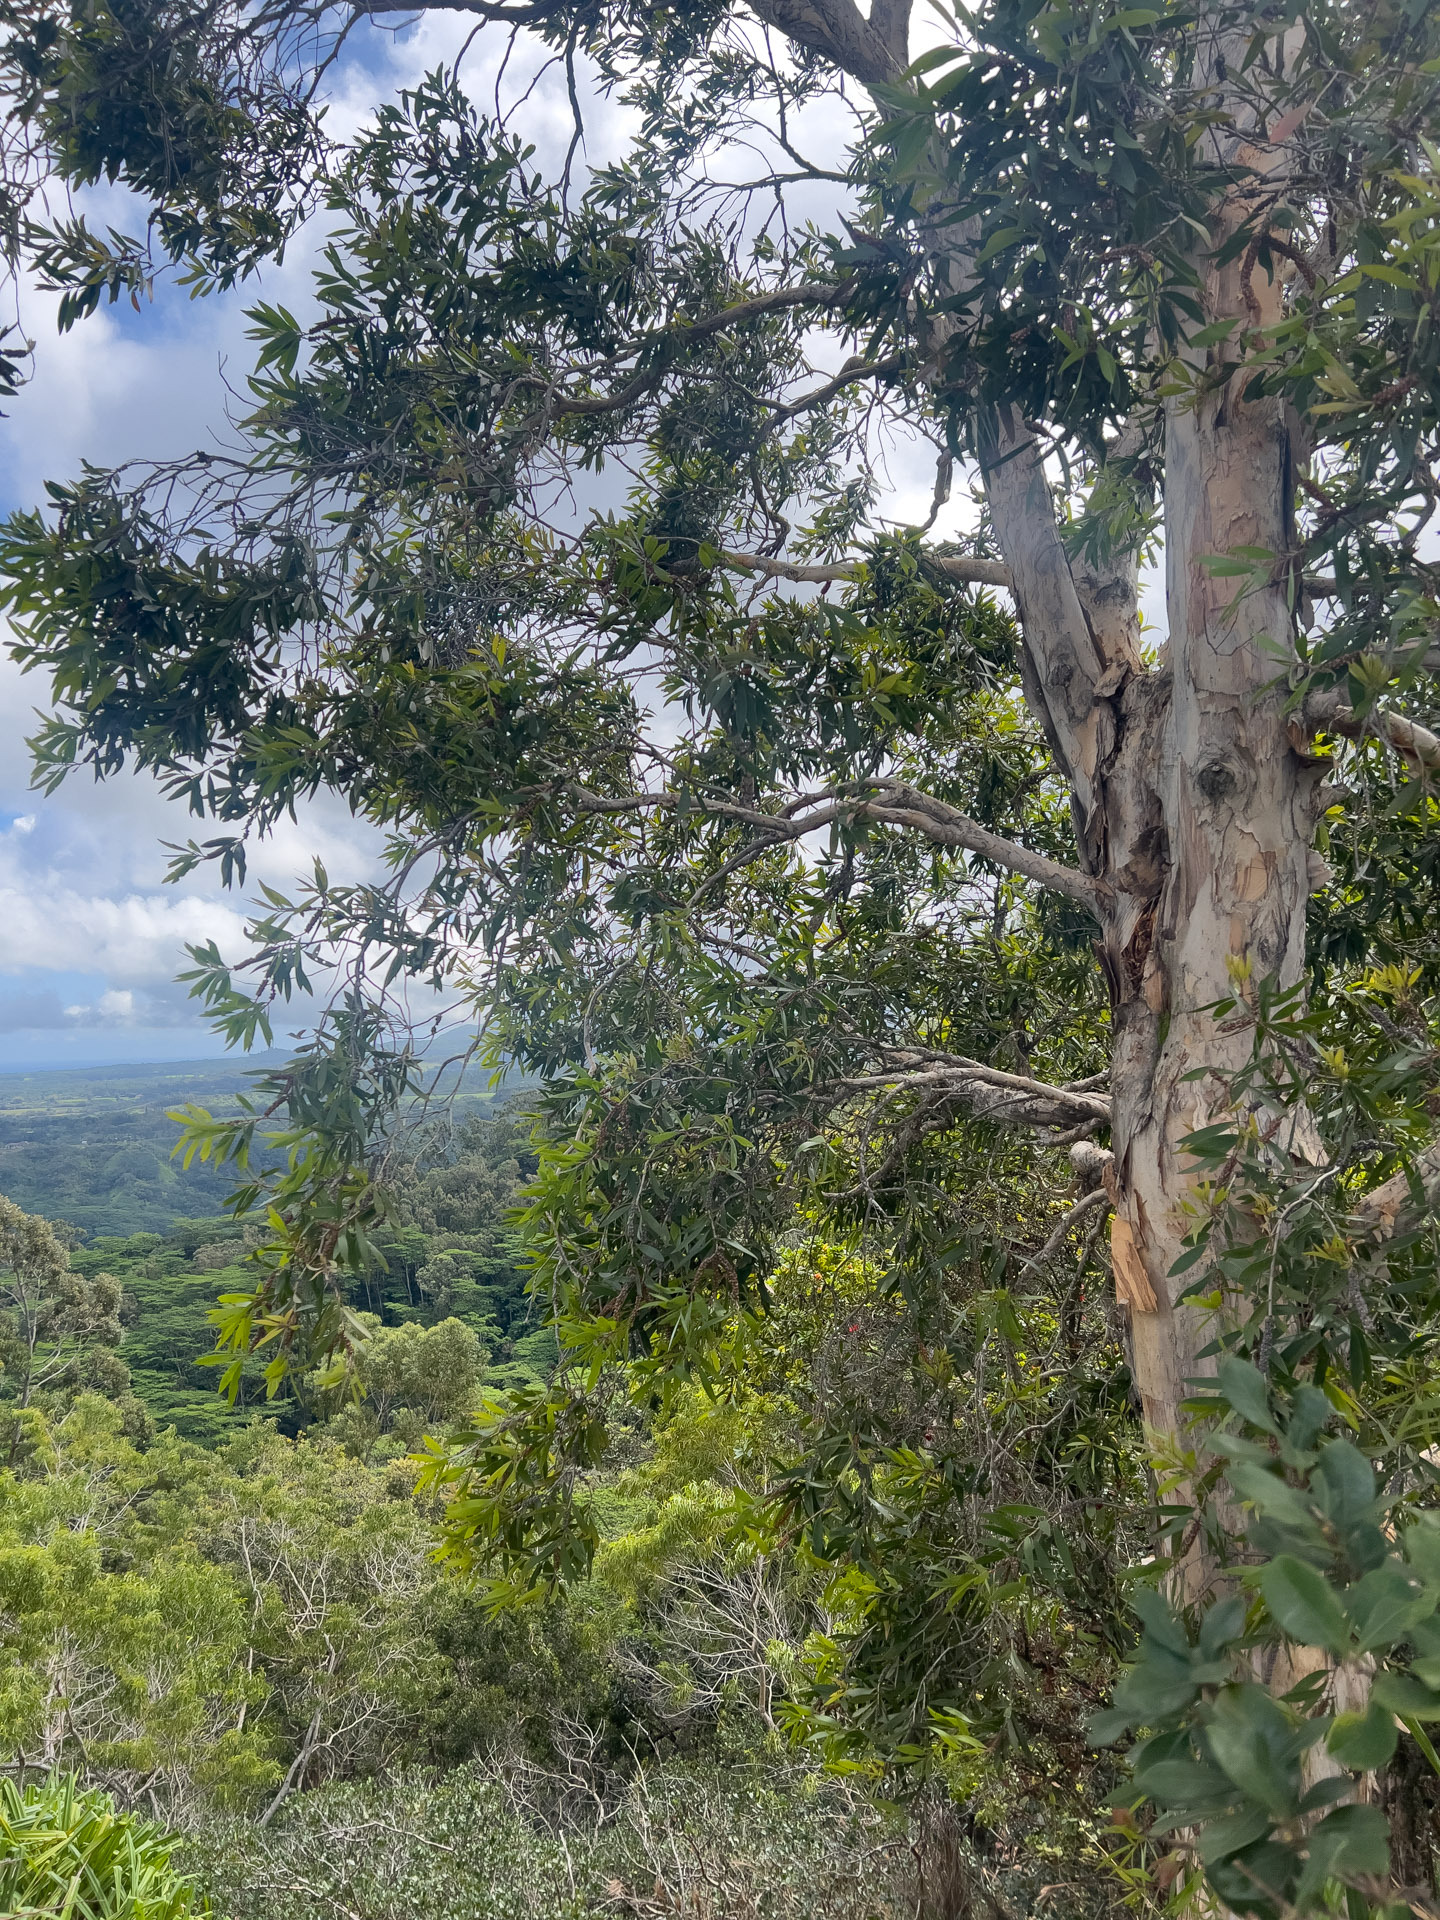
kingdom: Plantae
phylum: Tracheophyta
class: Magnoliopsida
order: Myrtales
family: Myrtaceae
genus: Melaleuca
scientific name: Melaleuca quinquenervia
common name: Punktree
